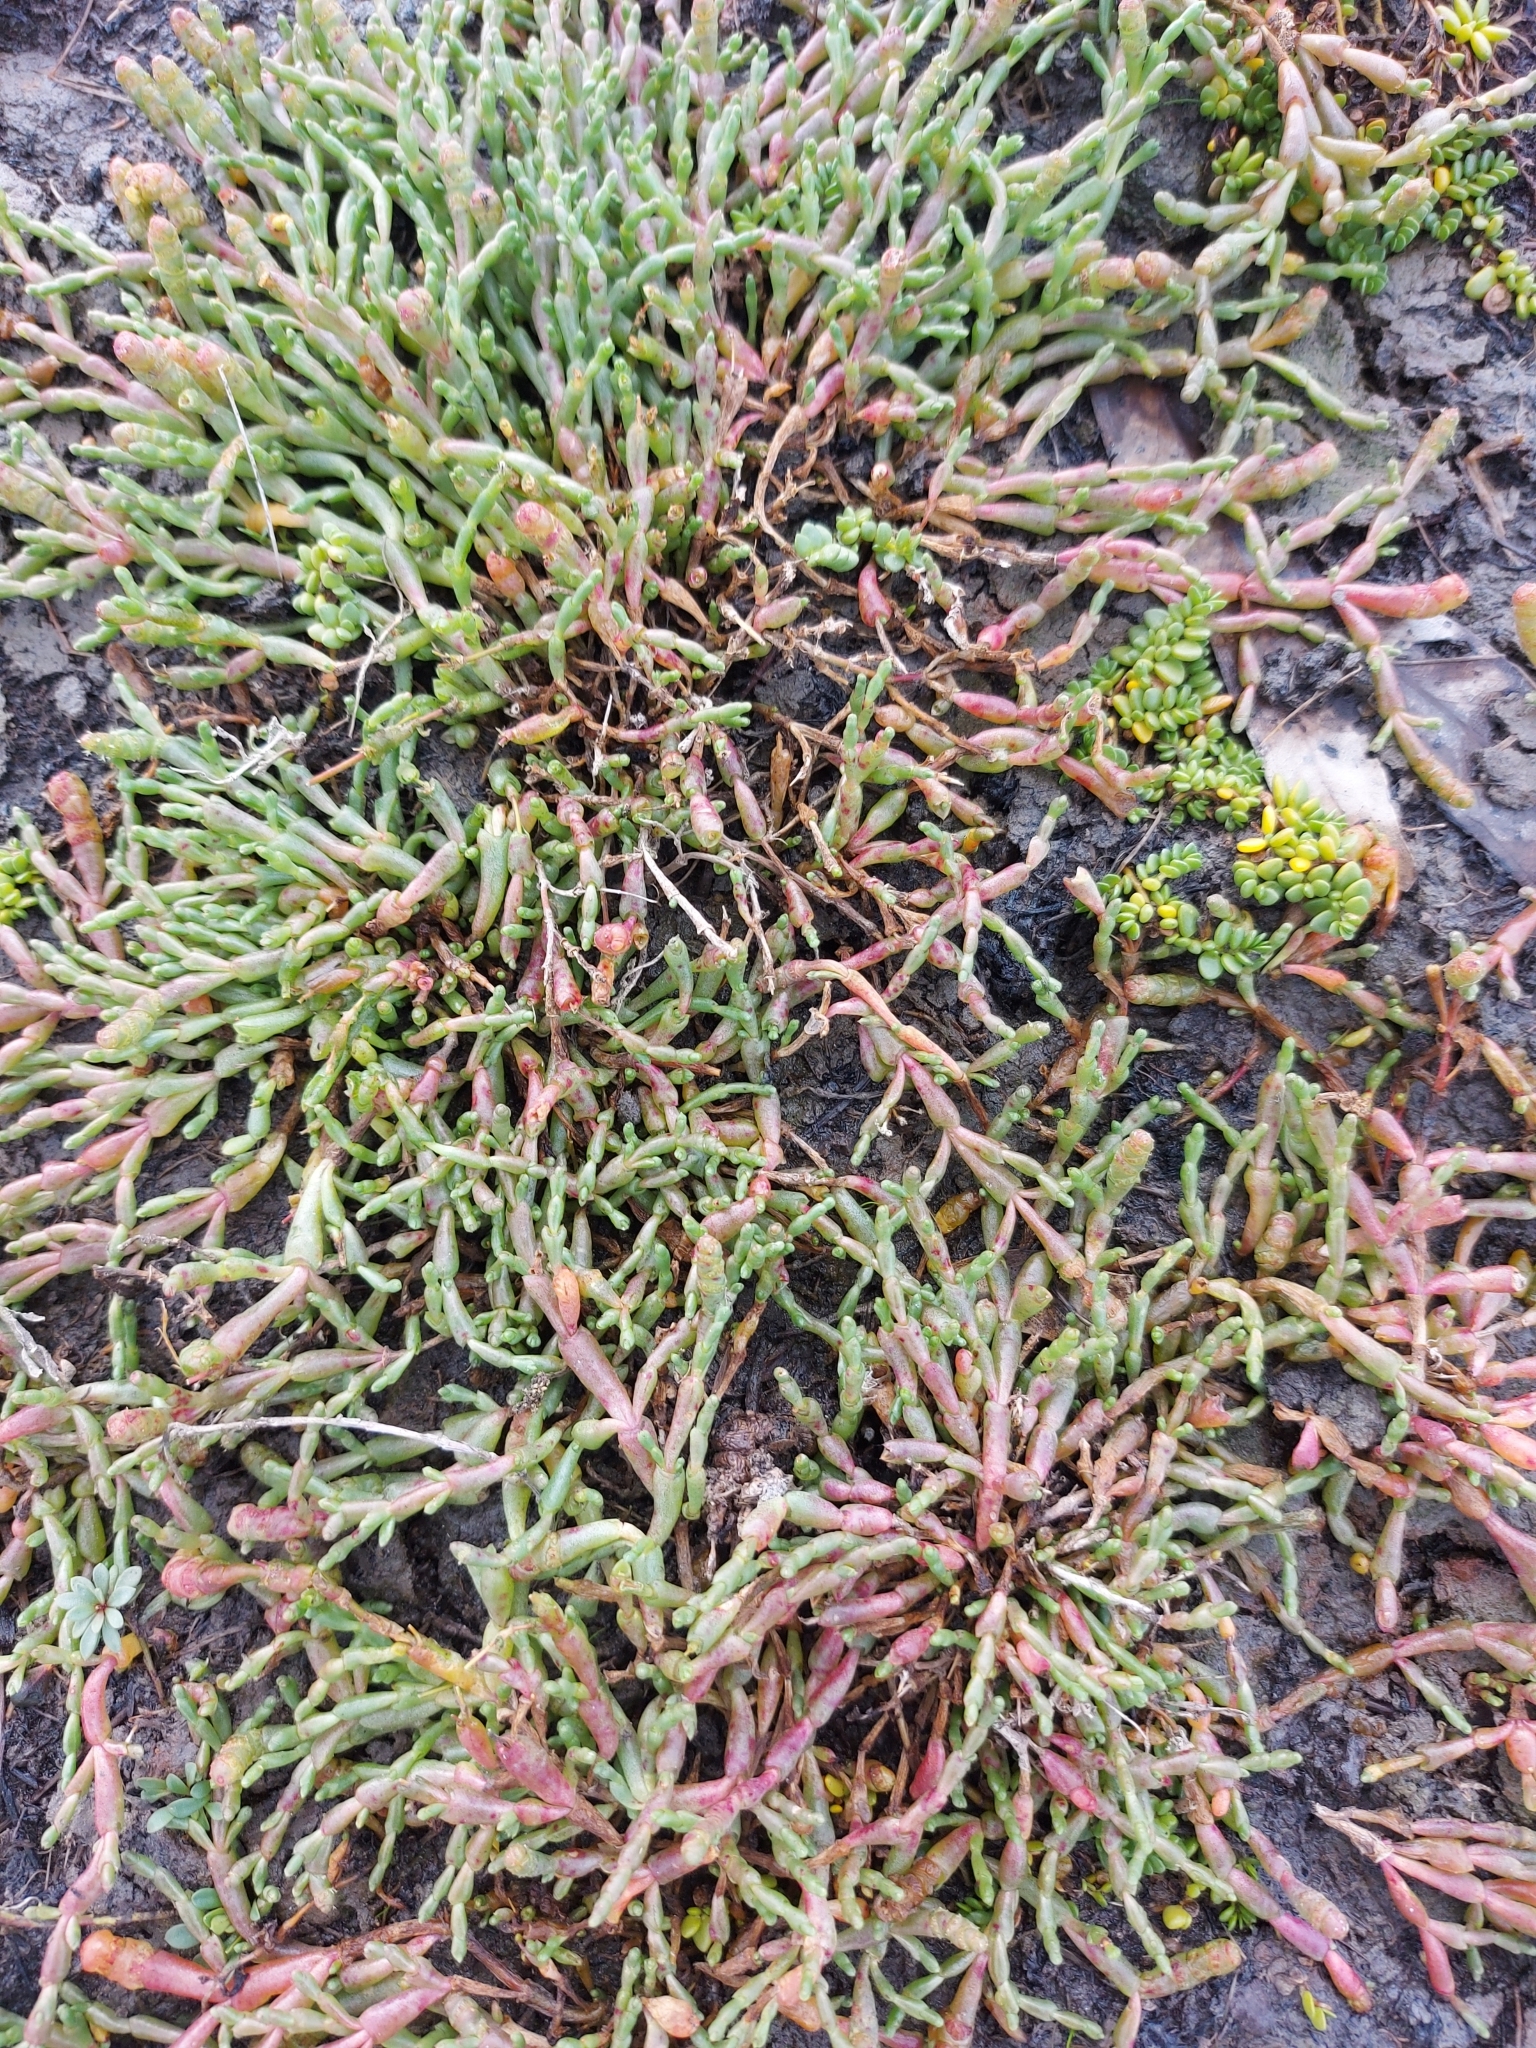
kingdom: Plantae
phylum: Tracheophyta
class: Magnoliopsida
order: Caryophyllales
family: Amaranthaceae
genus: Salicornia
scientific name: Salicornia quinqueflora
